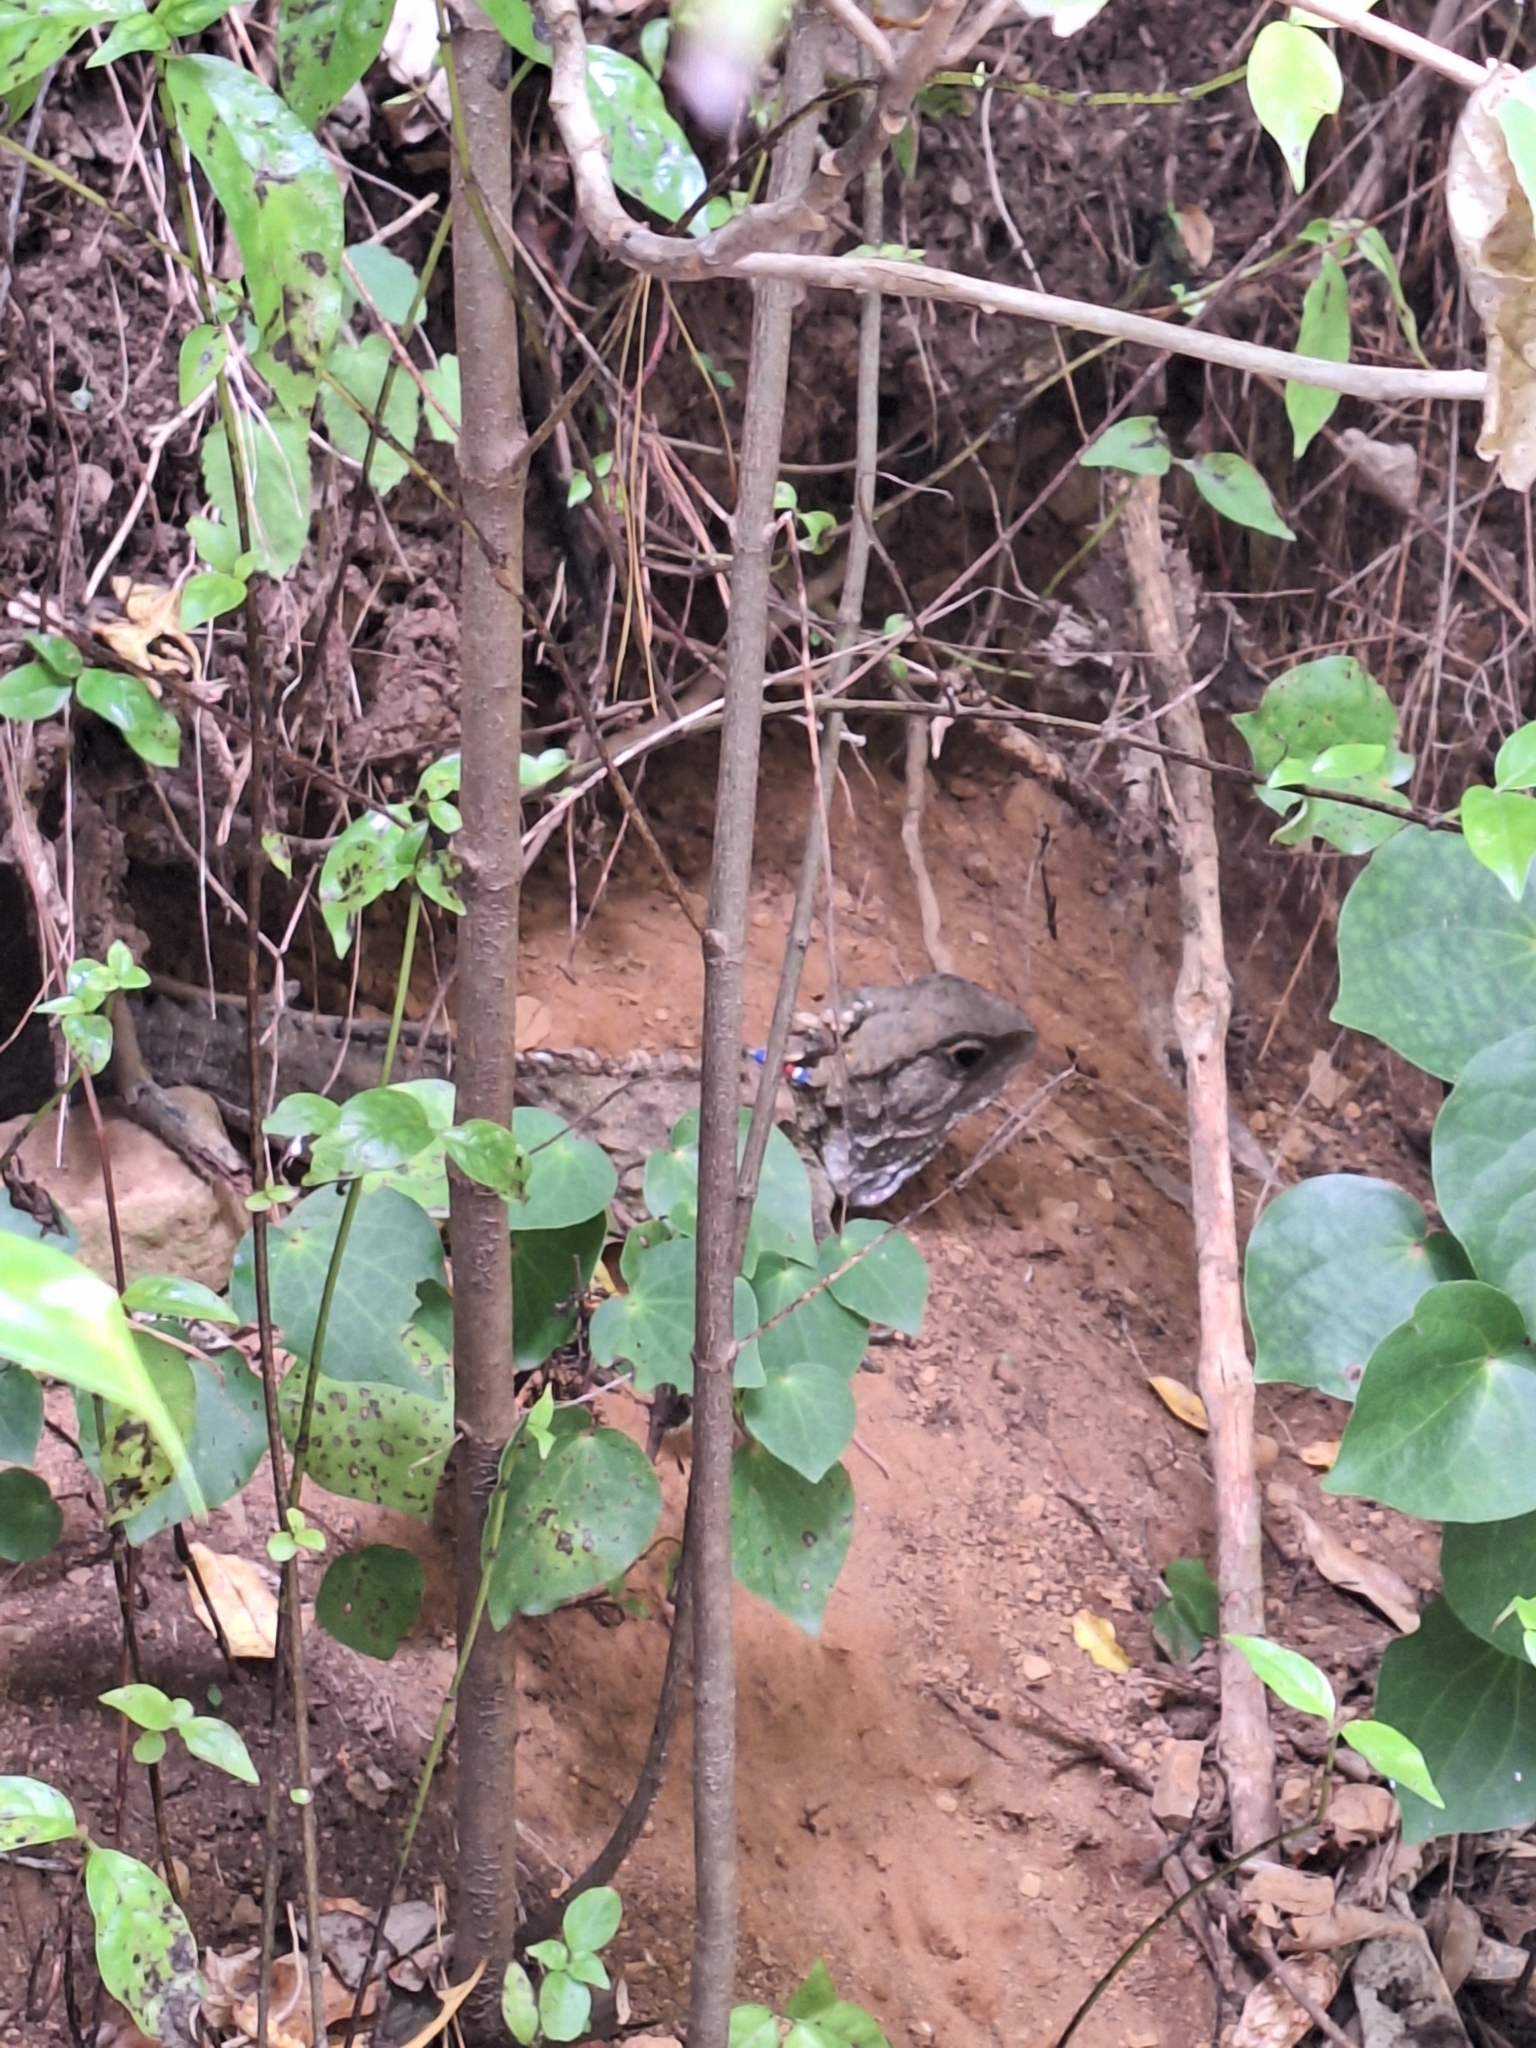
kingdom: Animalia
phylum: Chordata
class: Sphenodontia
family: Sphenodontidae
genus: Sphenodon
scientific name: Sphenodon punctatus
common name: Tuatara
